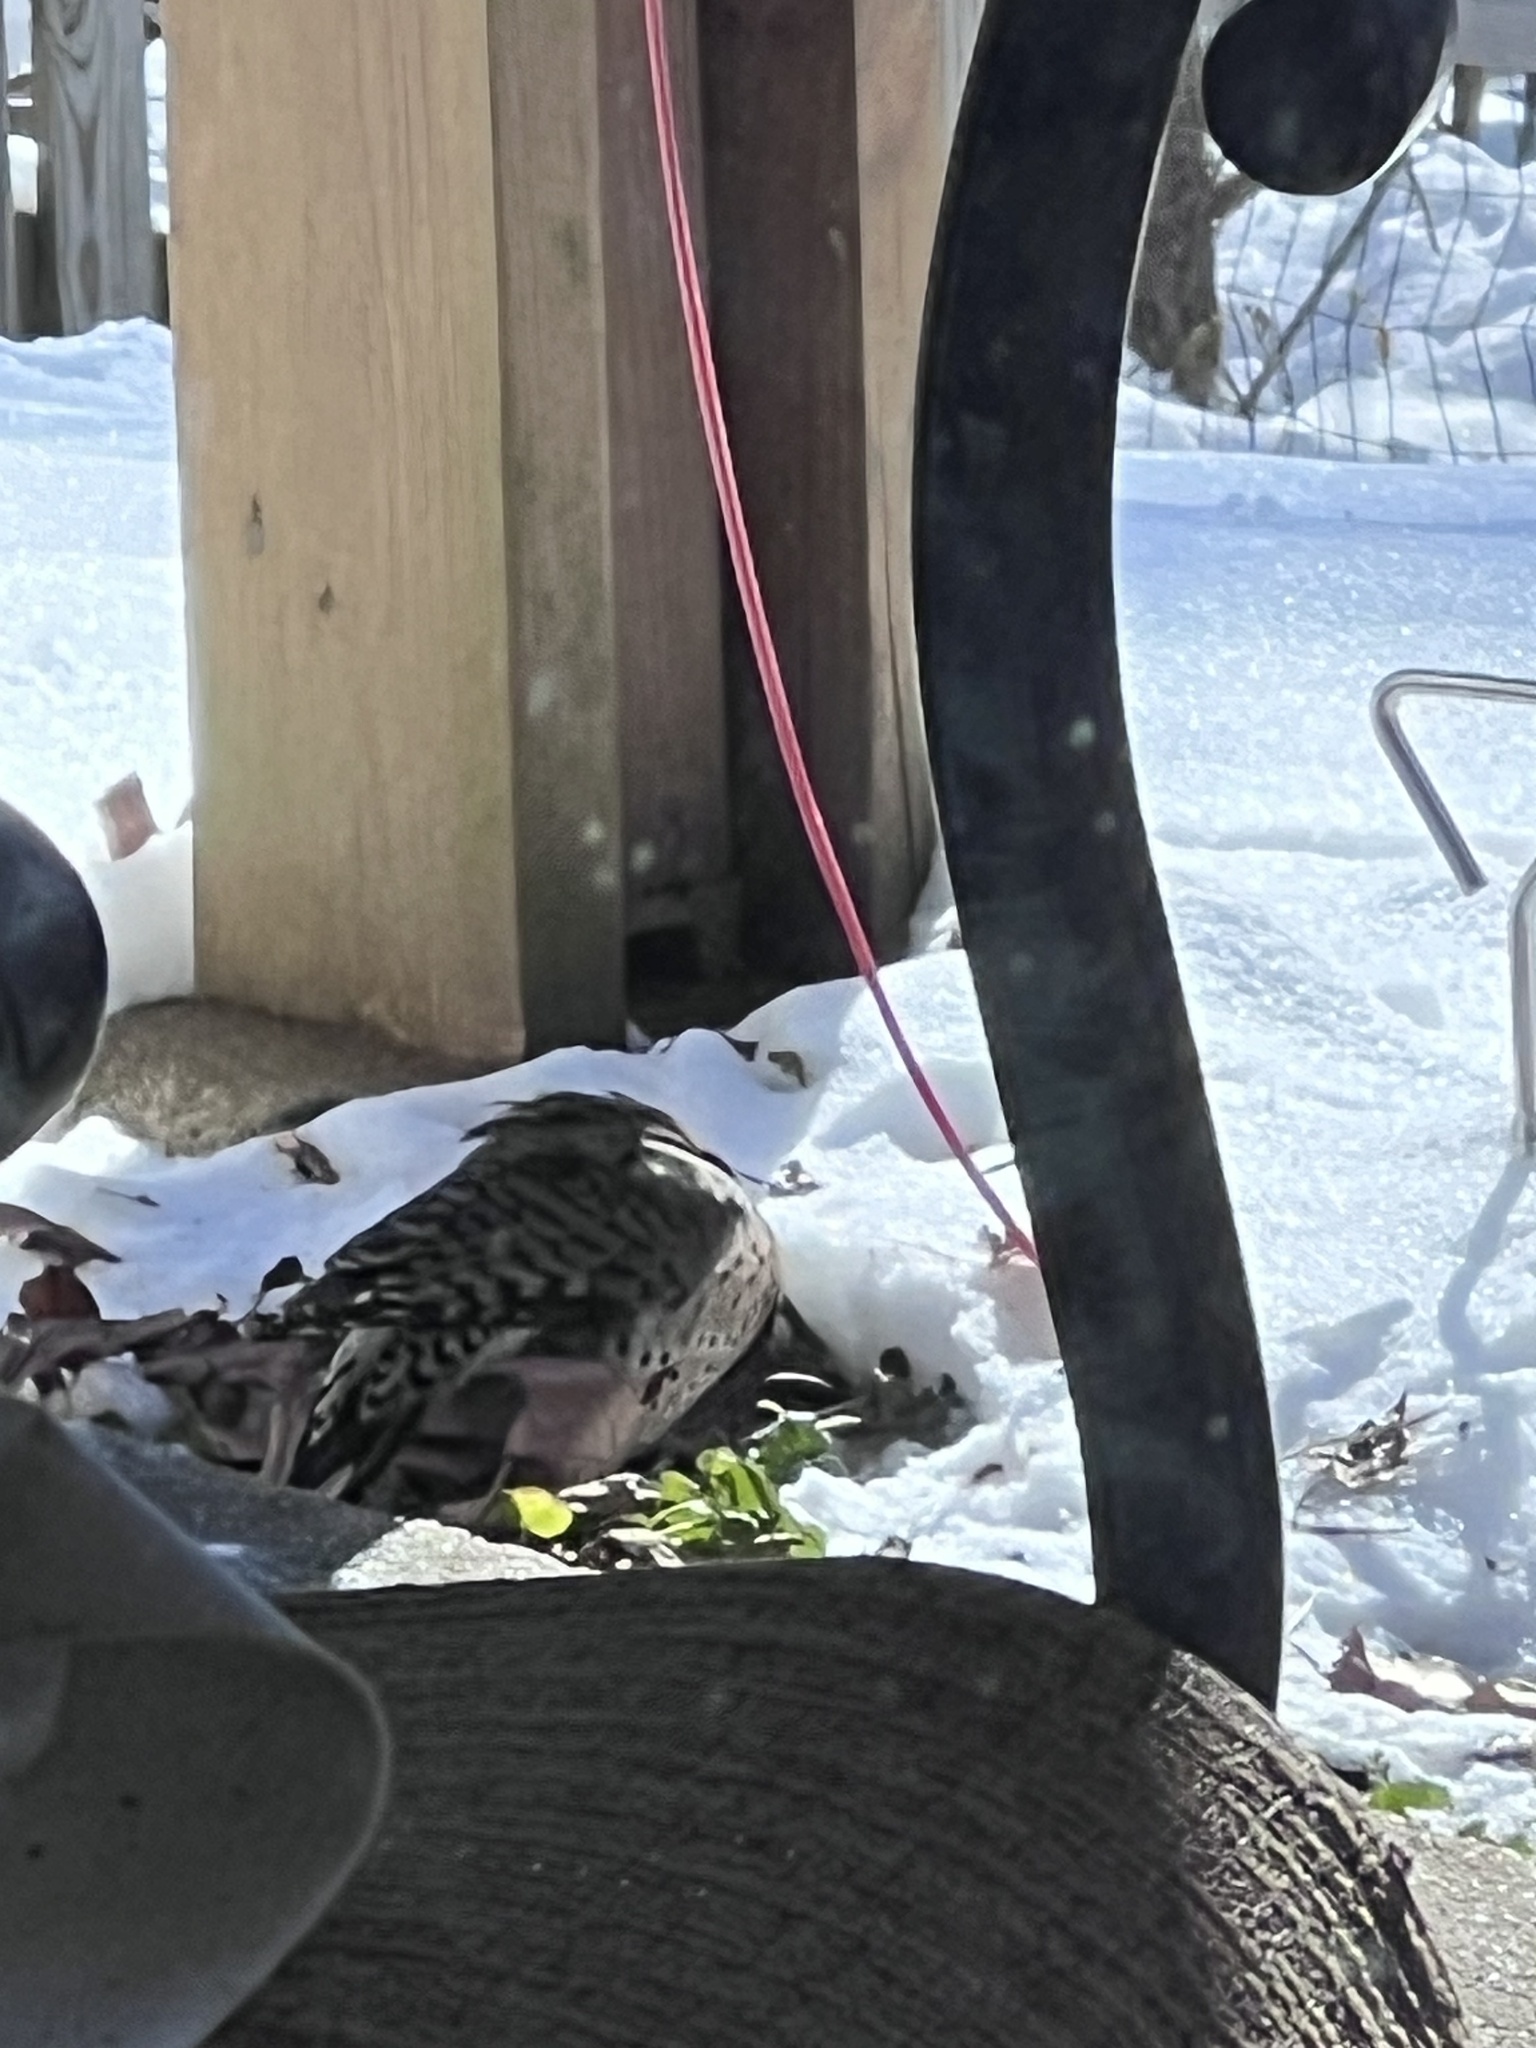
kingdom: Animalia
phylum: Chordata
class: Aves
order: Piciformes
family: Picidae
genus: Colaptes
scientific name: Colaptes auratus
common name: Northern flicker
